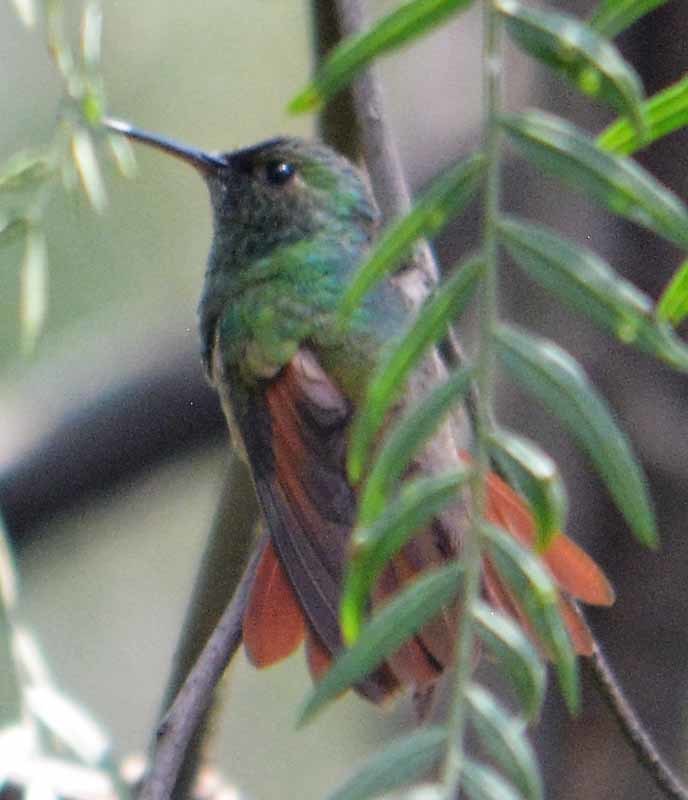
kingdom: Animalia
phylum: Chordata
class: Aves
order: Apodiformes
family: Trochilidae
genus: Saucerottia
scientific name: Saucerottia beryllina
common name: Berylline hummingbird
